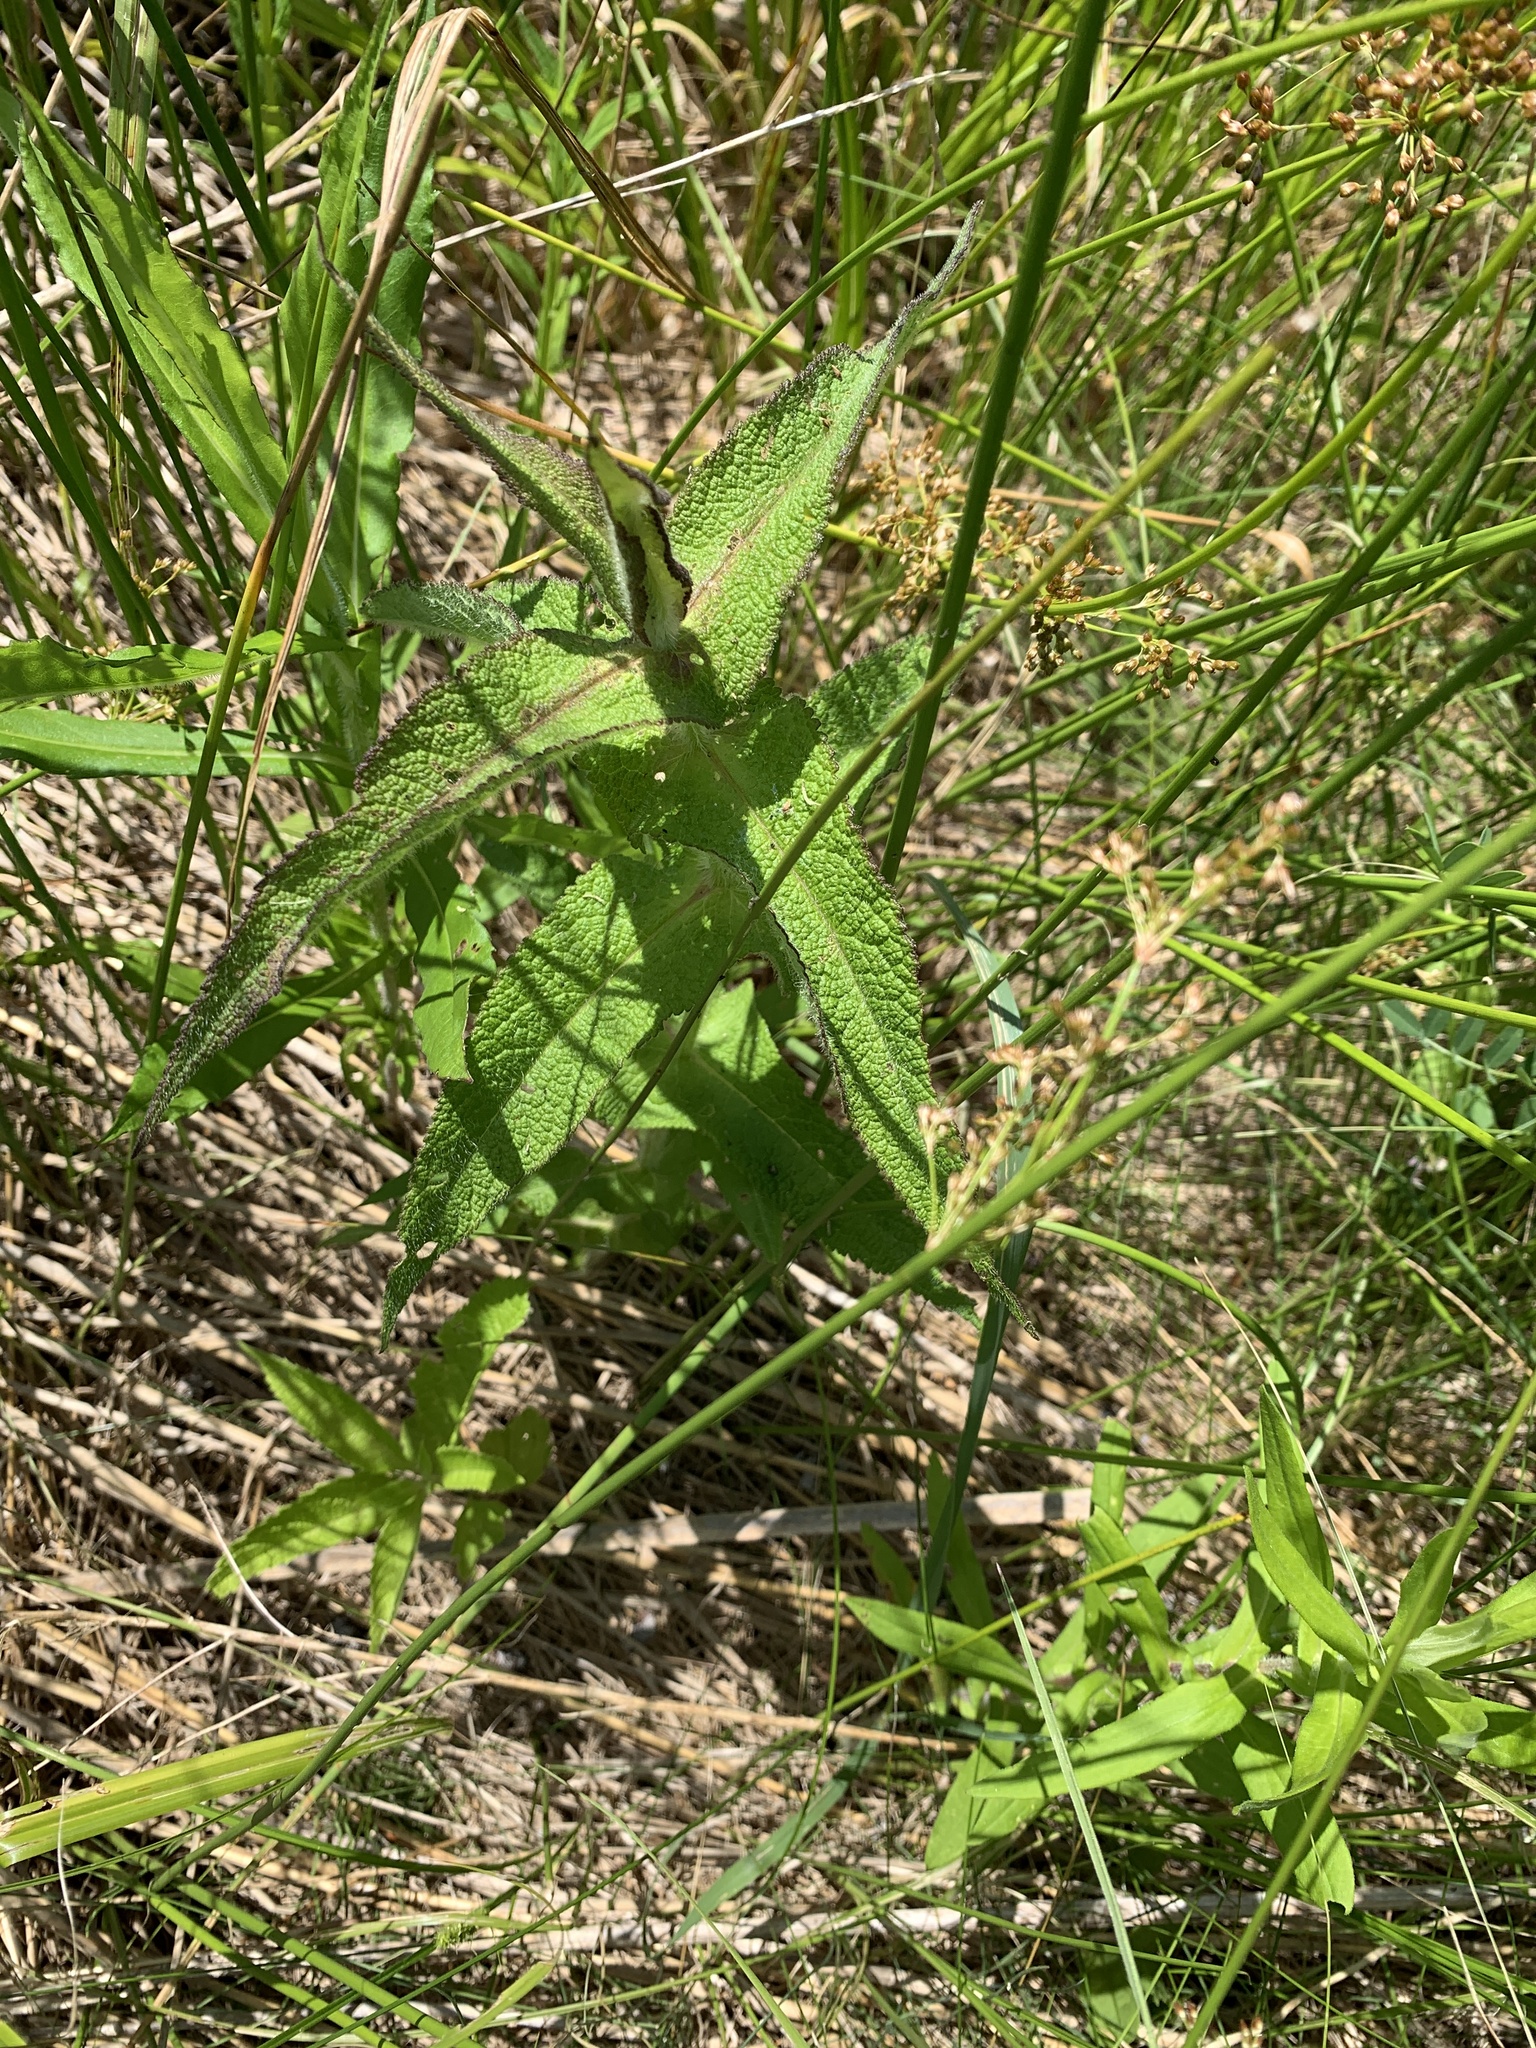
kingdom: Plantae
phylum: Tracheophyta
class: Magnoliopsida
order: Asterales
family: Asteraceae
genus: Eupatorium
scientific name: Eupatorium perfoliatum
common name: Boneset
